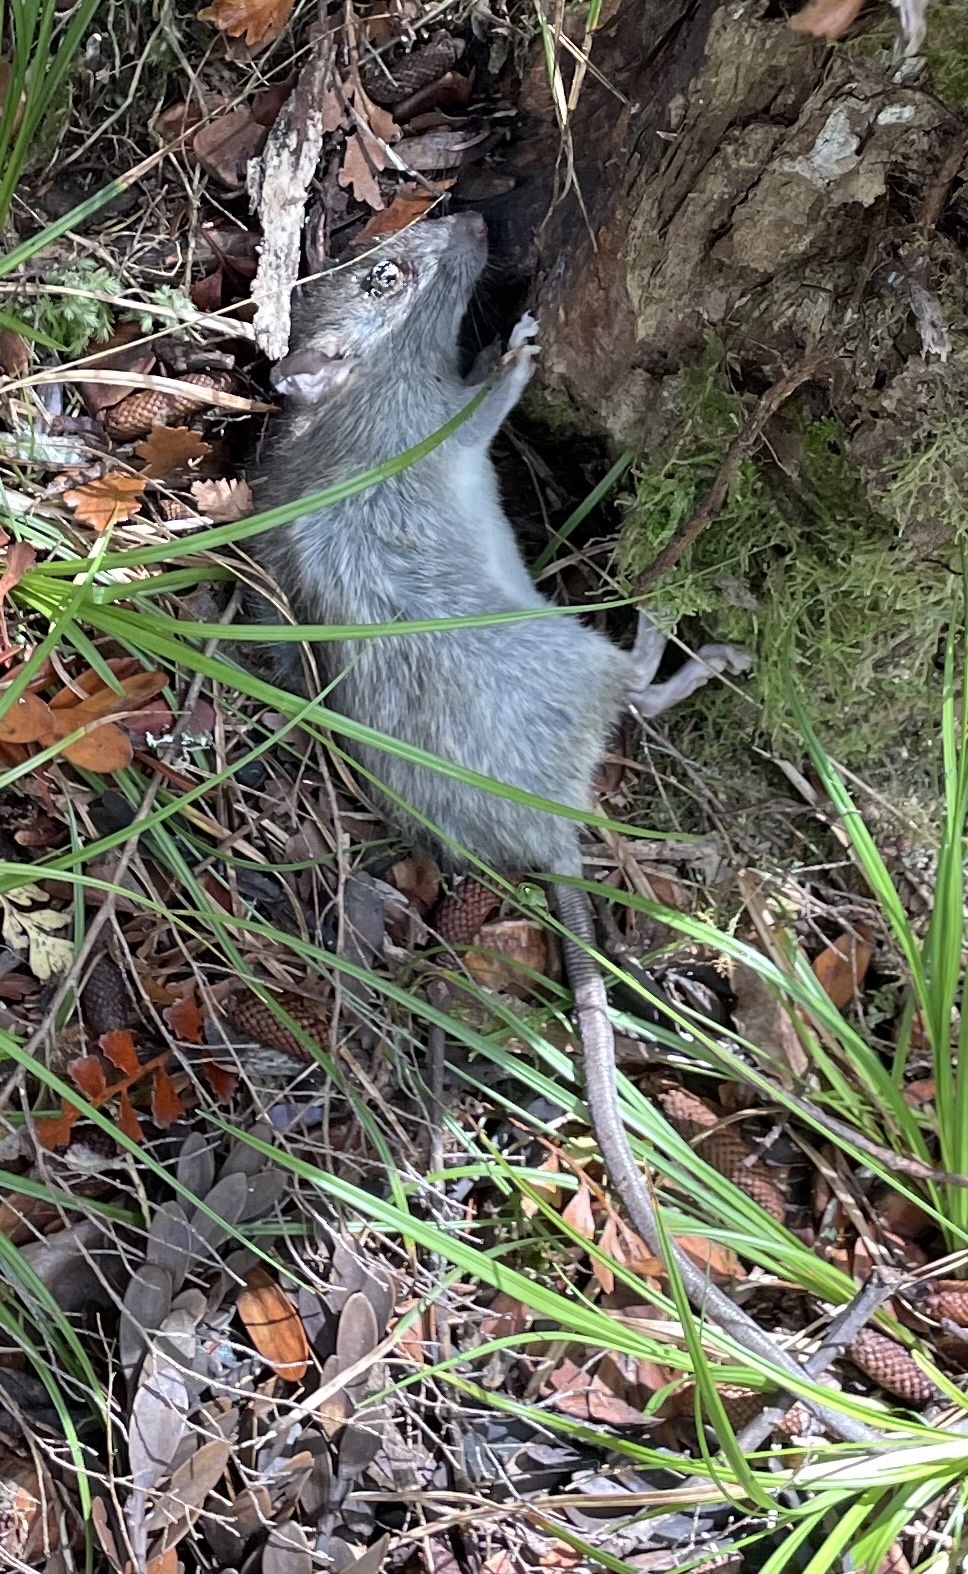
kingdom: Animalia
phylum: Chordata
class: Mammalia
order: Rodentia
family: Muridae
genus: Rattus
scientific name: Rattus rattus
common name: Black rat
